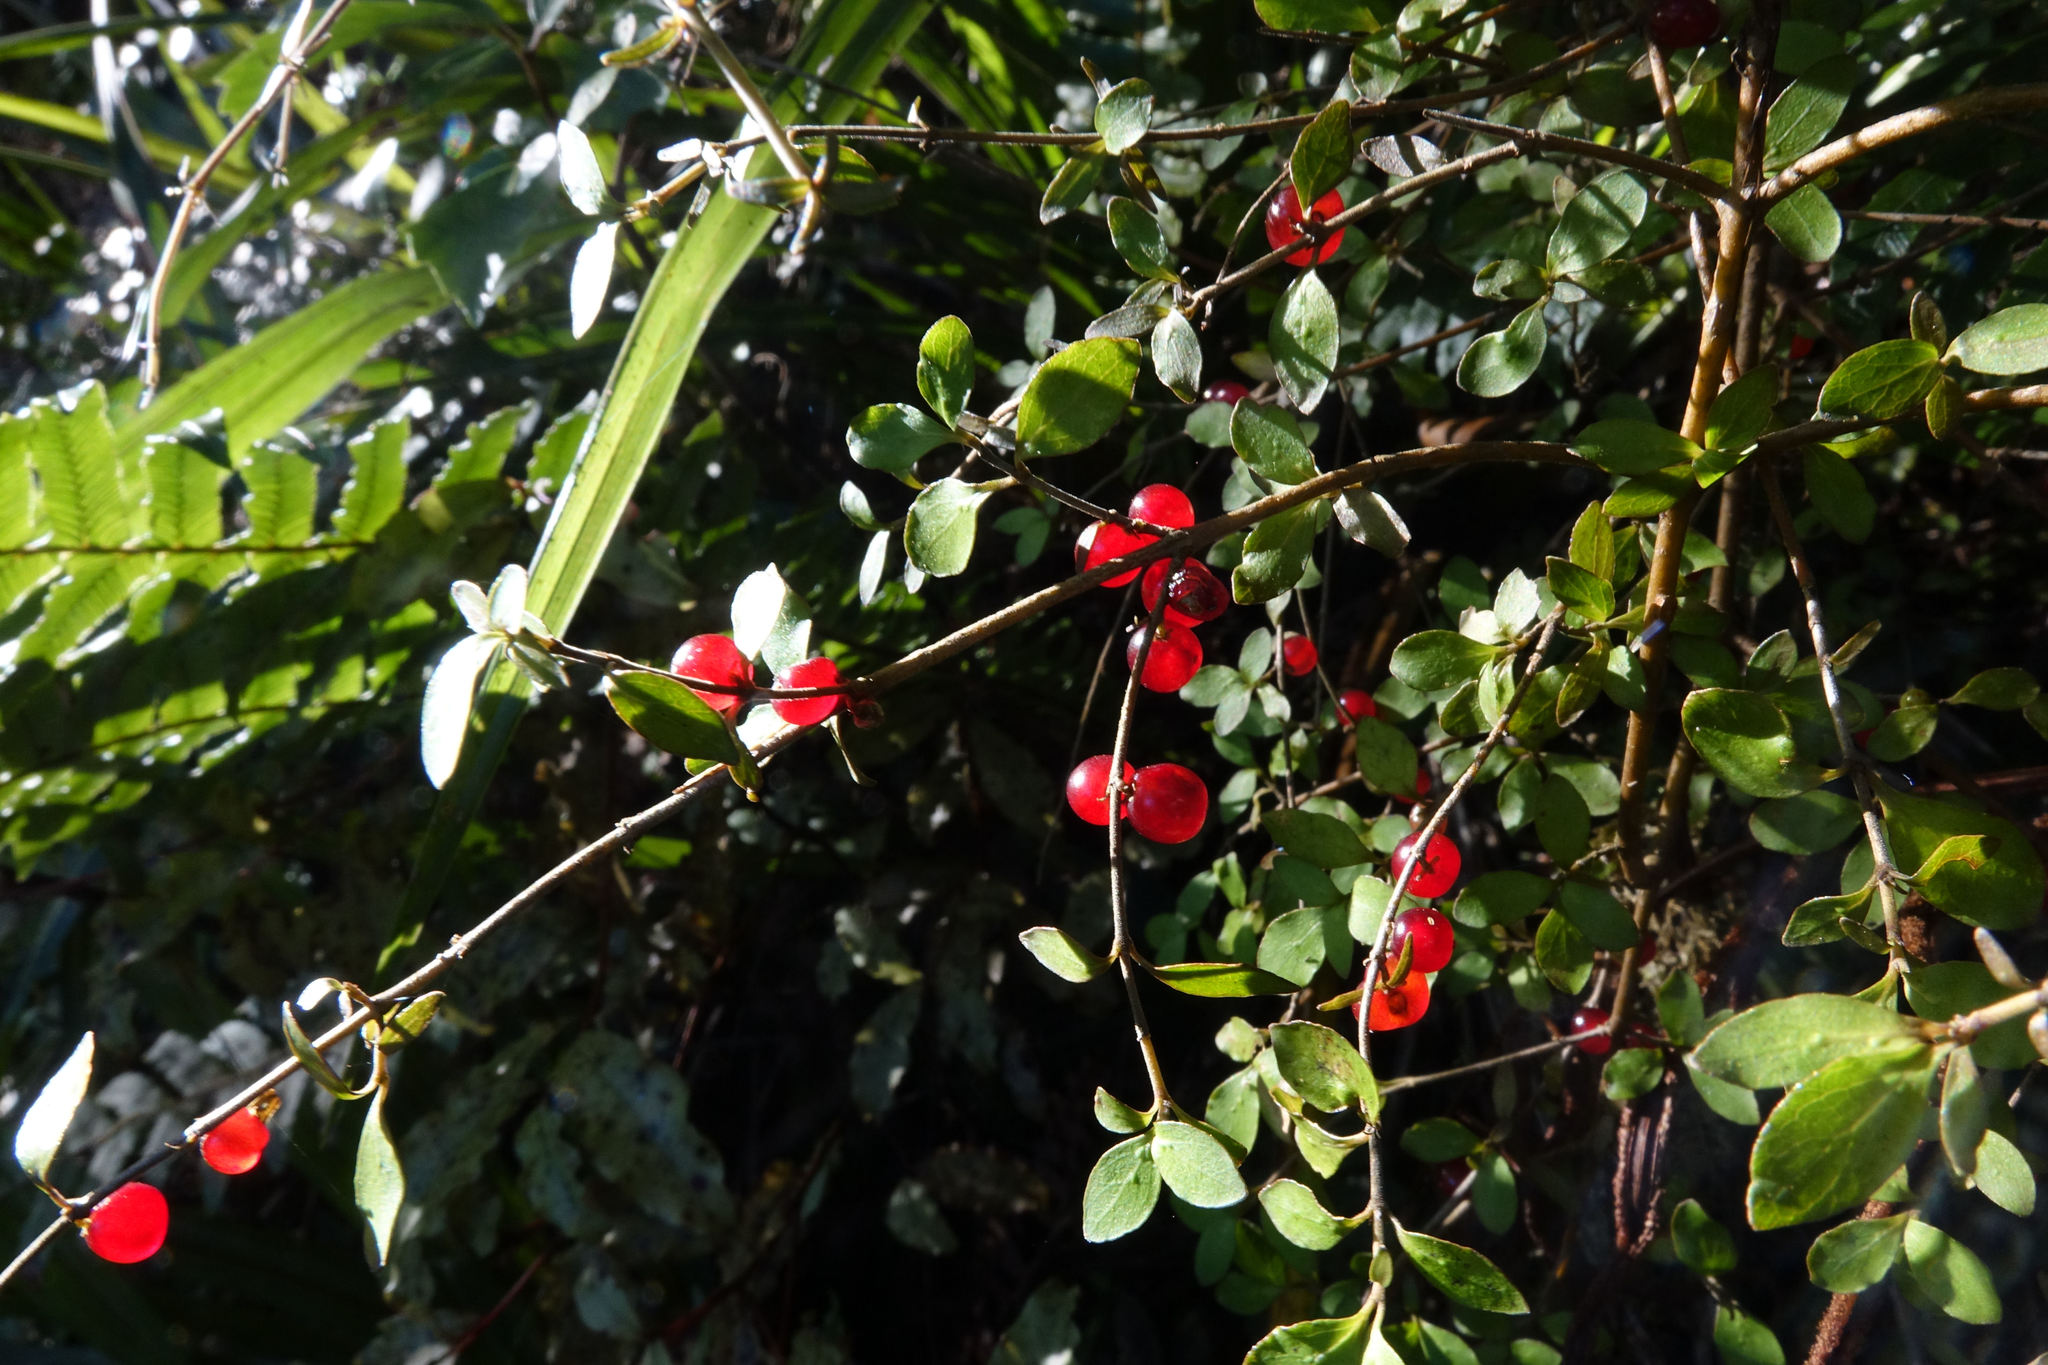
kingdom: Plantae
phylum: Tracheophyta
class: Magnoliopsida
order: Gentianales
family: Rubiaceae
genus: Coprosma
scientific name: Coprosma rhamnoides
